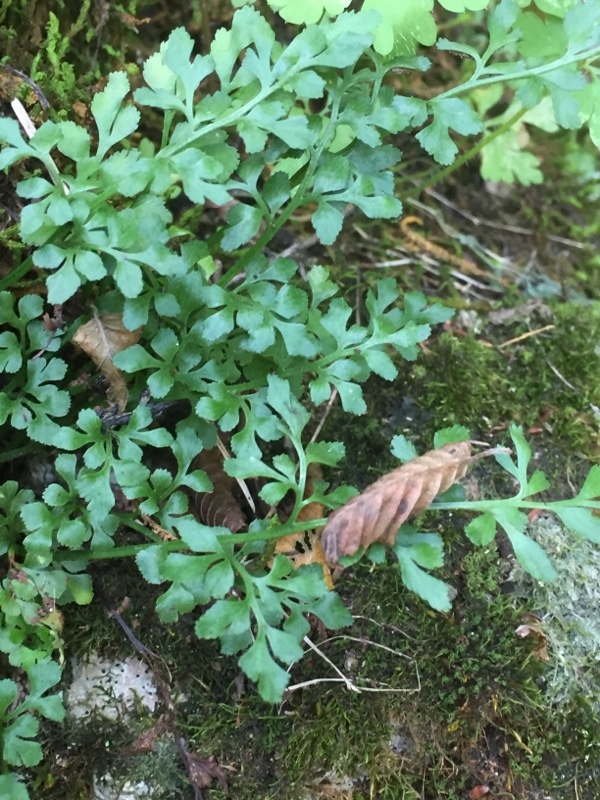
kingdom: Plantae
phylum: Tracheophyta
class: Polypodiopsida
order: Polypodiales
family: Aspleniaceae
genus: Asplenium
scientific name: Asplenium ruta-muraria
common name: Wall-rue
